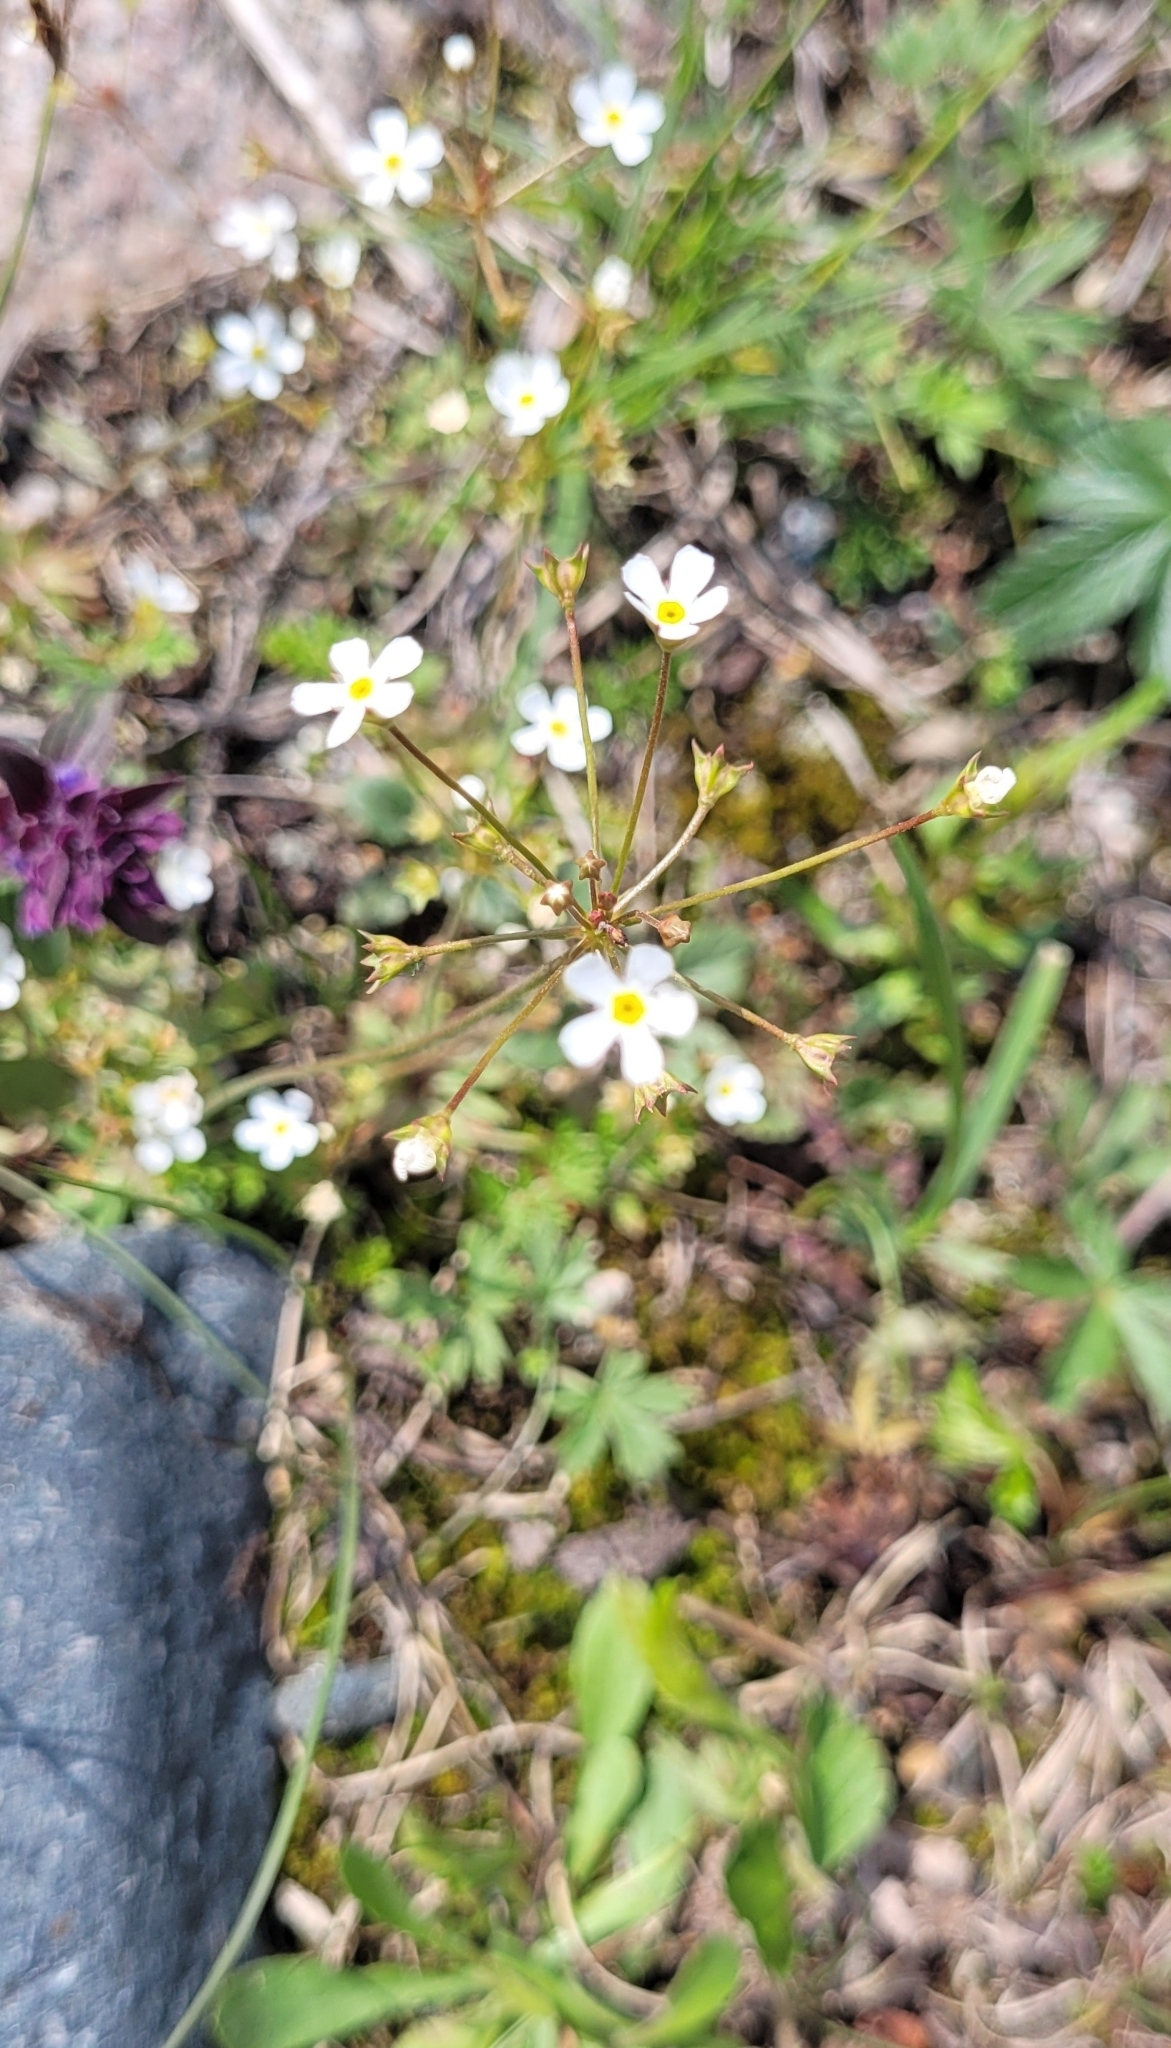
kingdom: Plantae
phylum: Tracheophyta
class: Magnoliopsida
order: Ericales
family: Primulaceae
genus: Androsace
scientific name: Androsace septentrionalis
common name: Hairy northern fairy-candelabra
